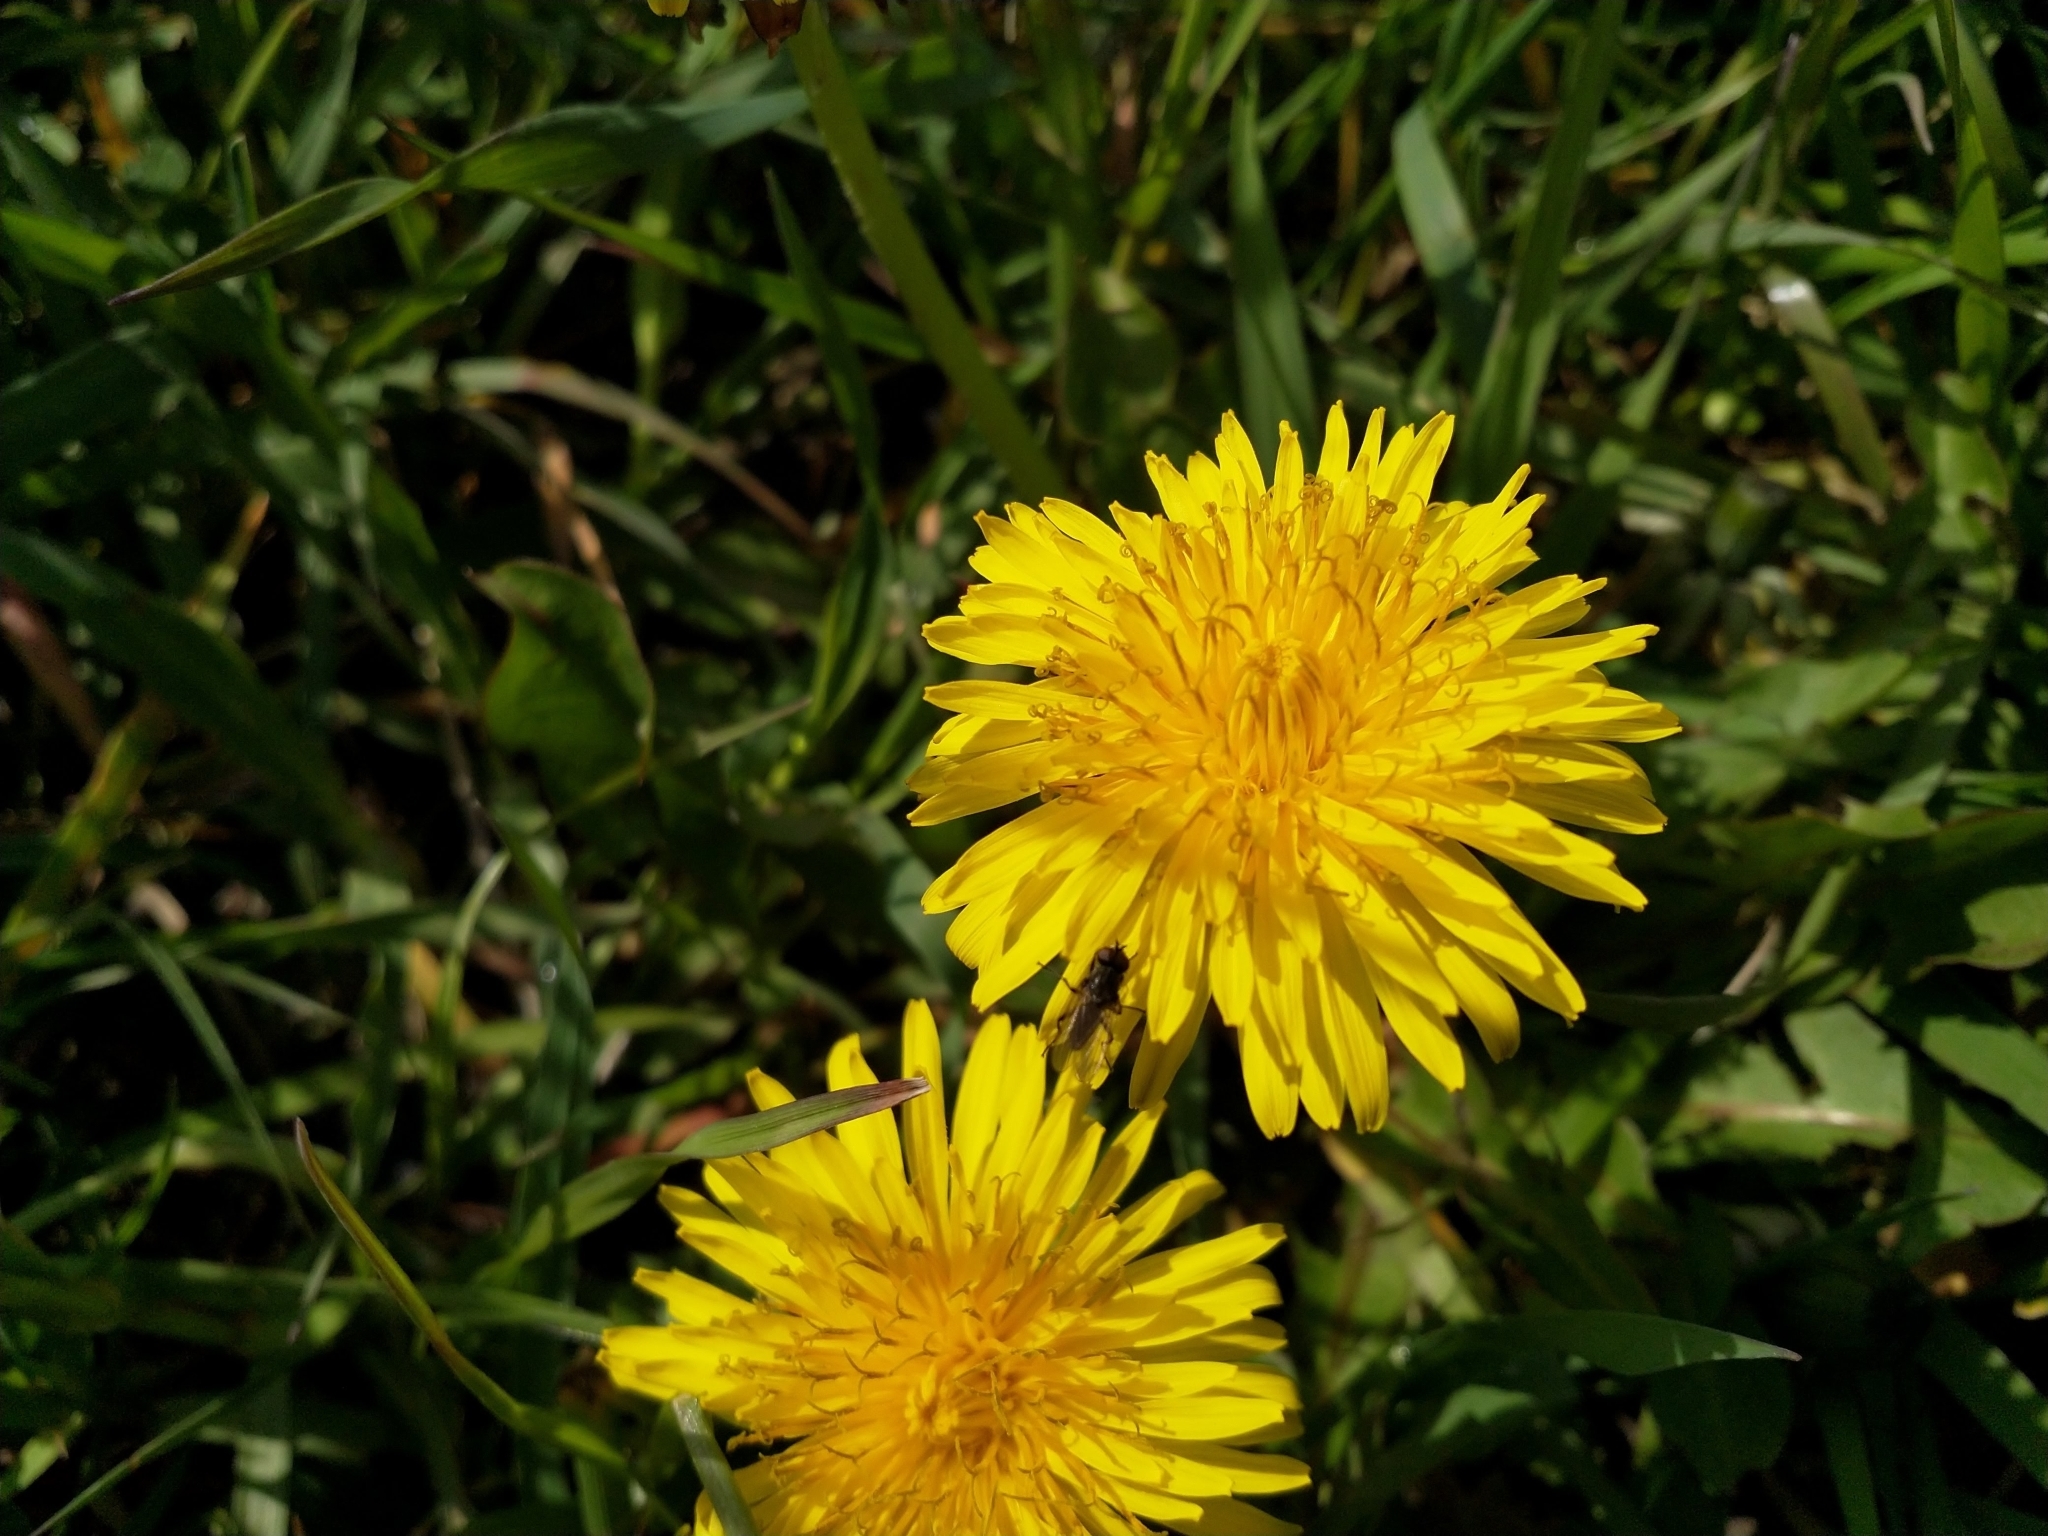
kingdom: Plantae
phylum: Tracheophyta
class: Magnoliopsida
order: Asterales
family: Asteraceae
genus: Taraxacum
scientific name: Taraxacum officinale
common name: Common dandelion
